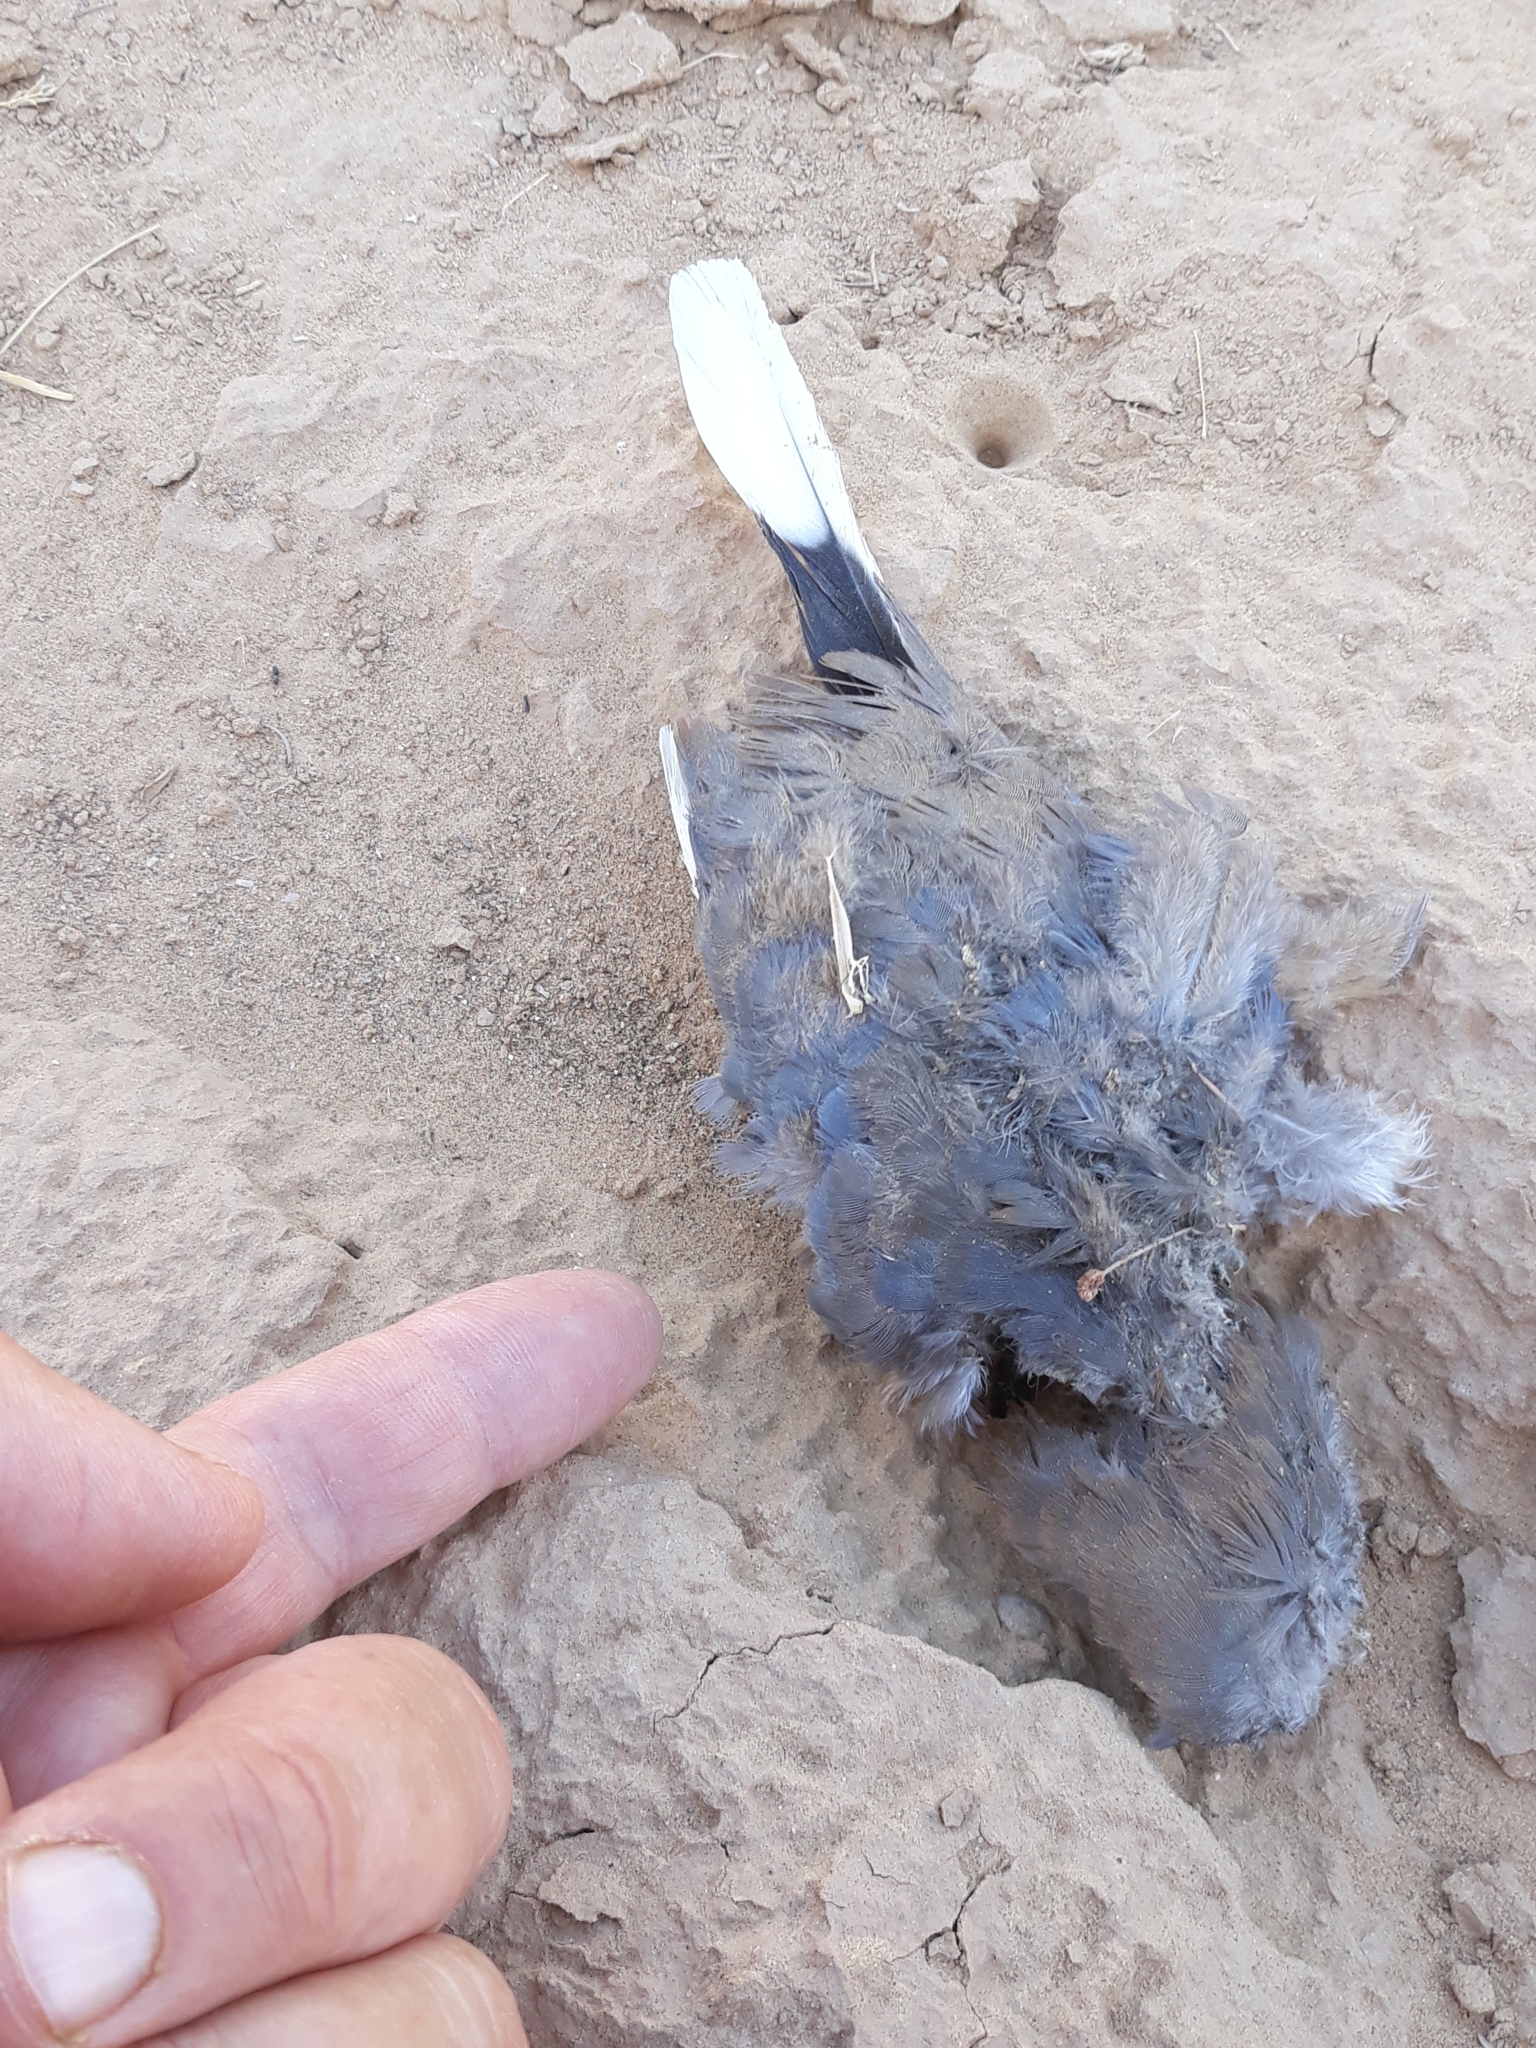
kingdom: Animalia
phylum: Chordata
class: Aves
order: Columbiformes
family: Columbidae
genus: Spilopelia
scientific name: Spilopelia senegalensis
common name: Laughing dove
